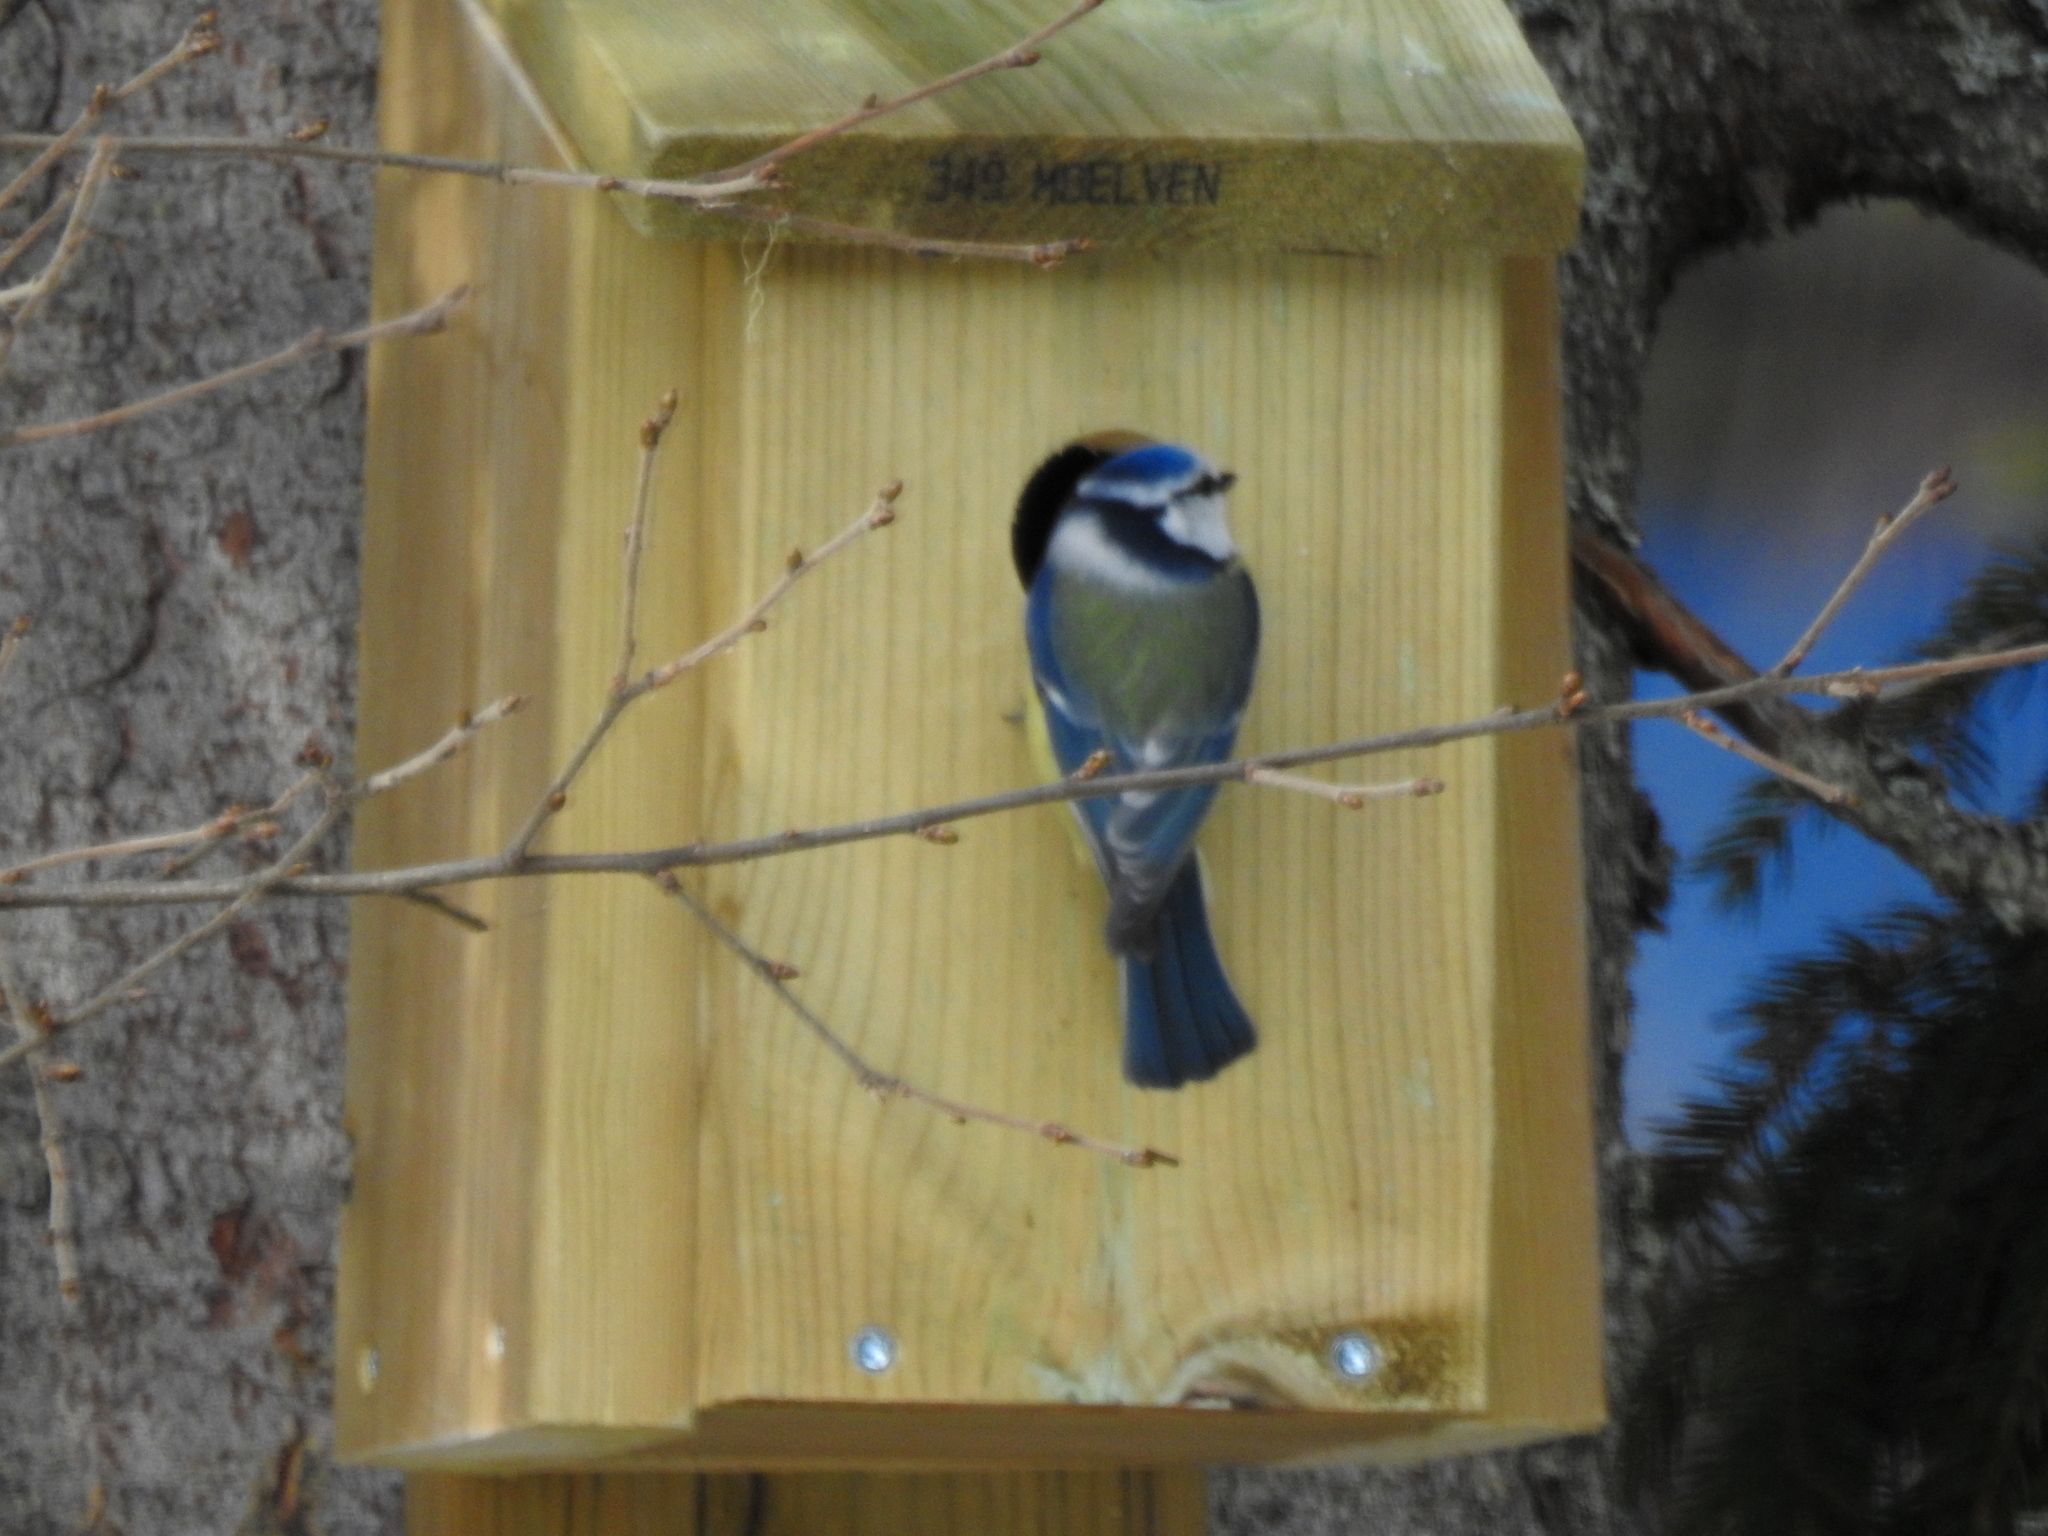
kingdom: Animalia
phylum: Chordata
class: Aves
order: Passeriformes
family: Paridae
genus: Cyanistes
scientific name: Cyanistes caeruleus
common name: Eurasian blue tit
